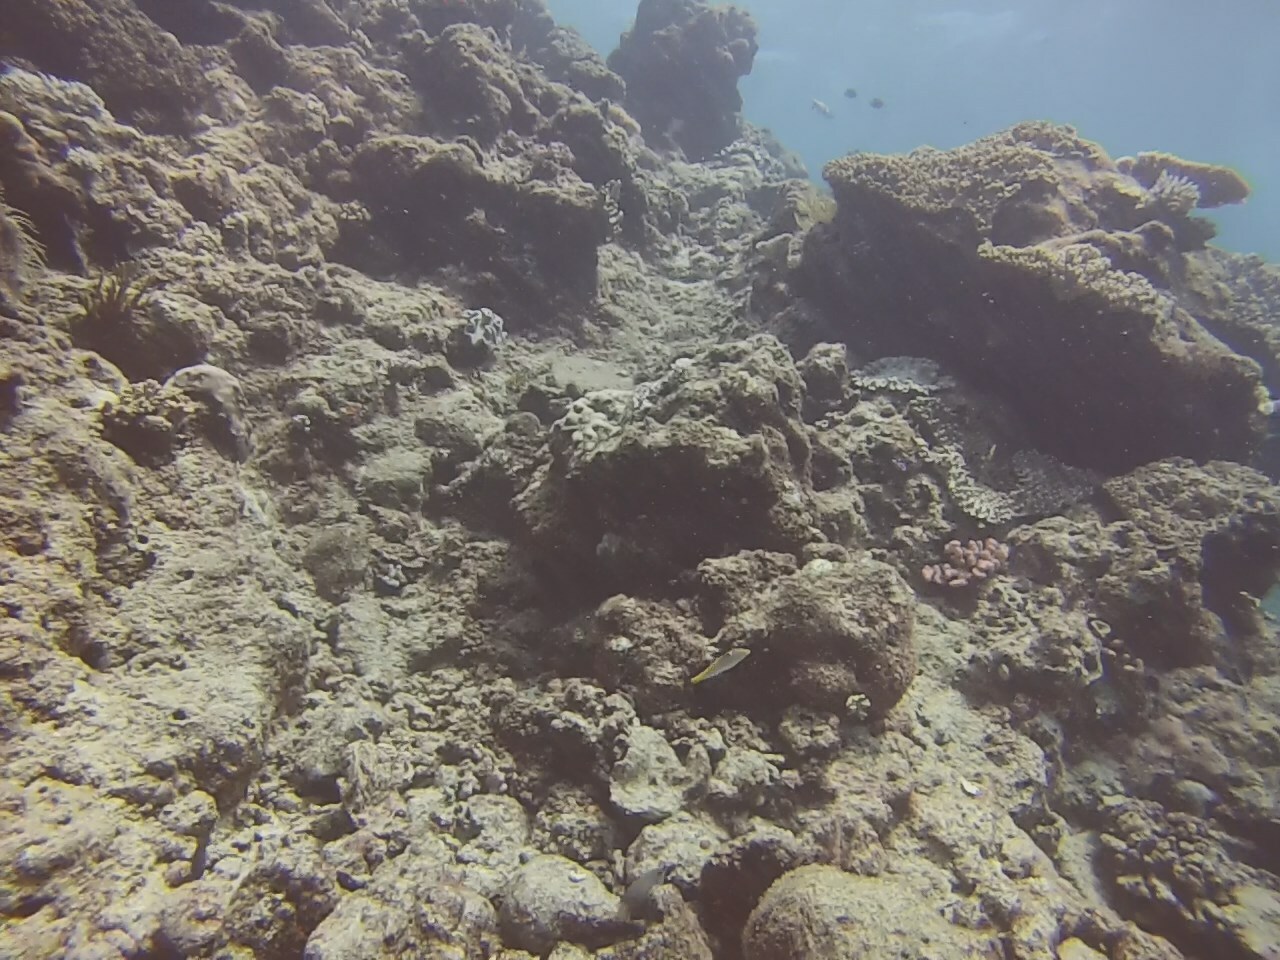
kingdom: Animalia
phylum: Chordata
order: Perciformes
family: Labridae
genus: Halichoeres
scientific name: Halichoeres hortulanus
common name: Checkerboard wrasse
